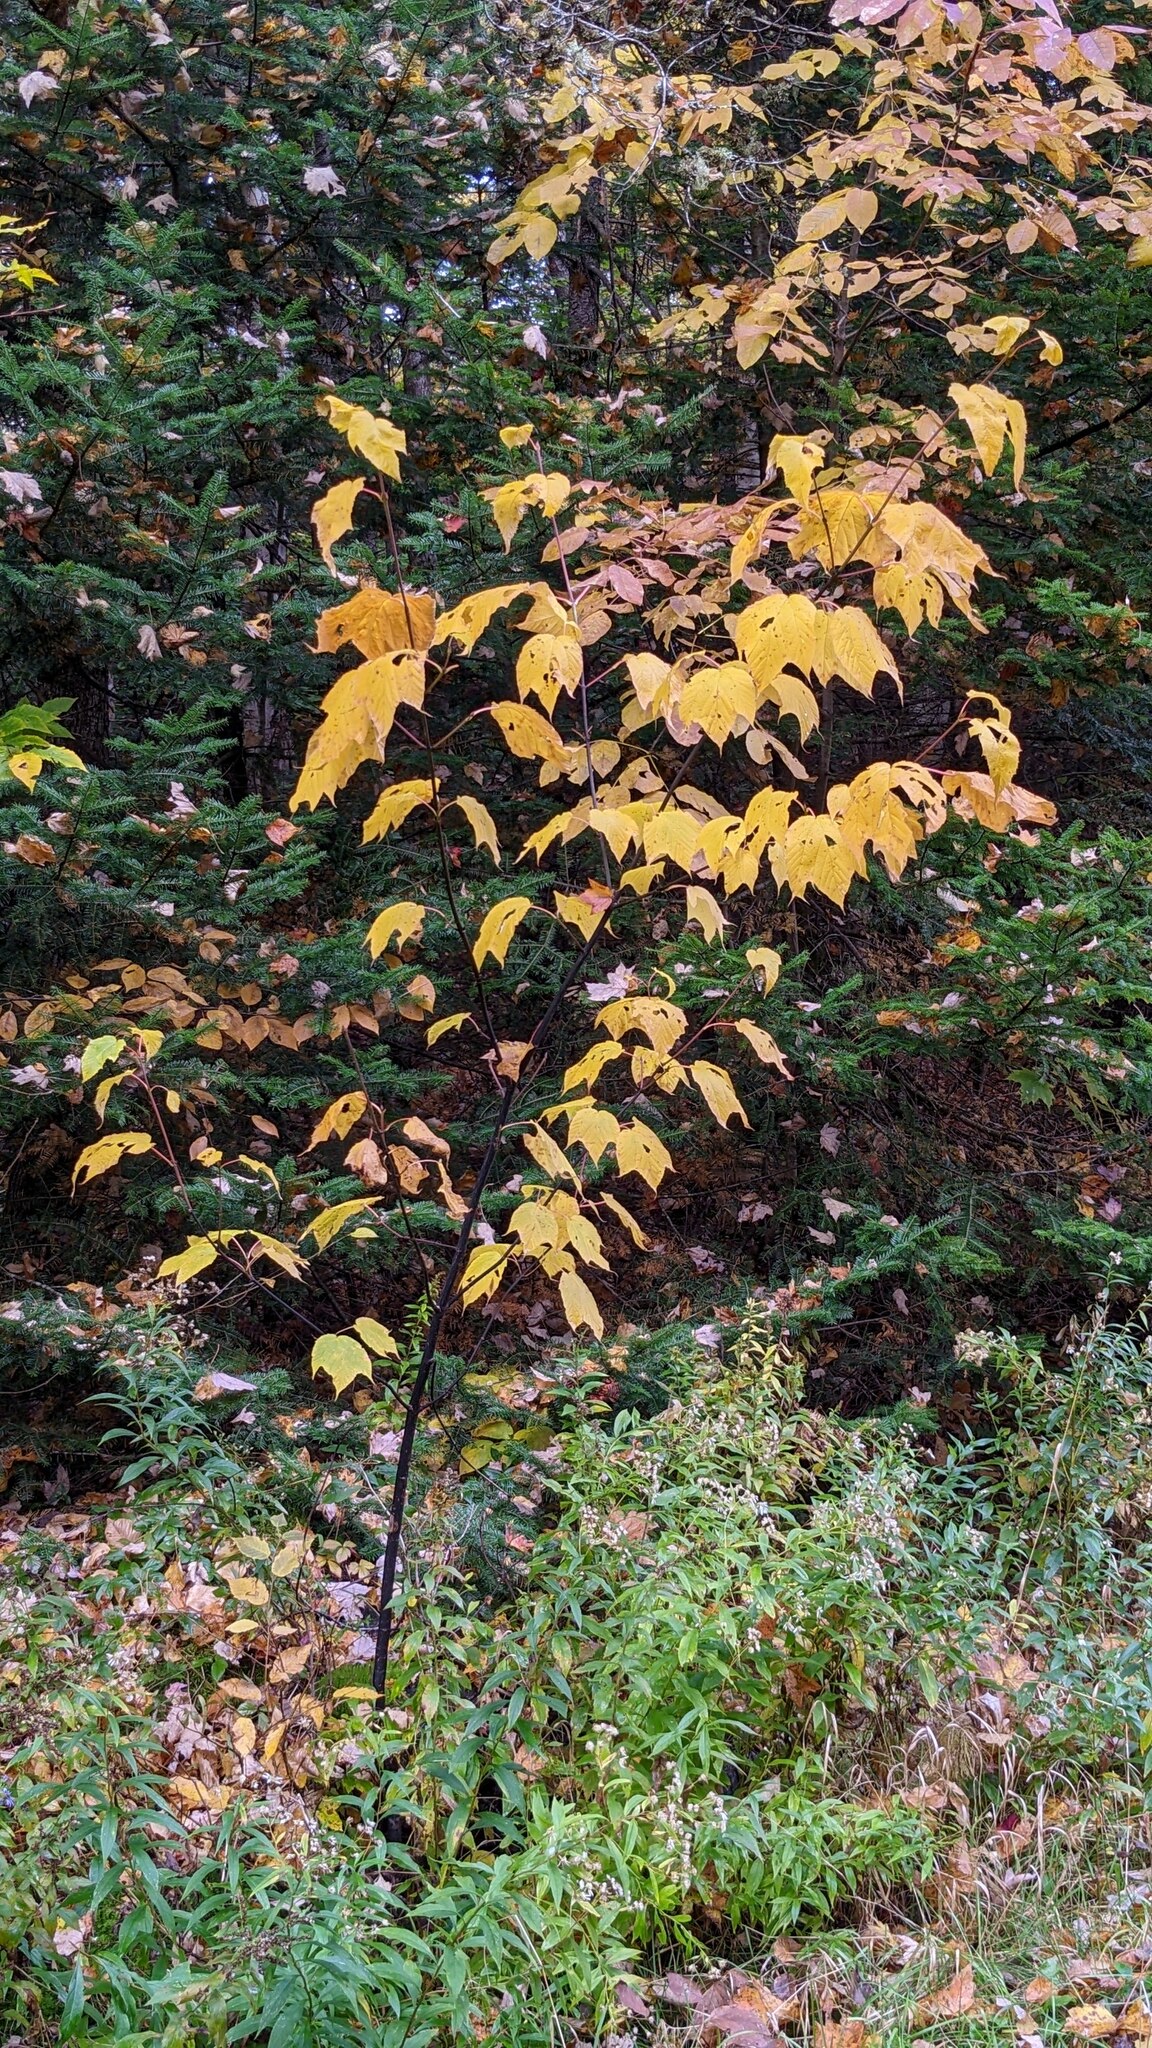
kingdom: Plantae
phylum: Tracheophyta
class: Magnoliopsida
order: Sapindales
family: Sapindaceae
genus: Acer
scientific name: Acer pensylvanicum
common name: Moosewood
